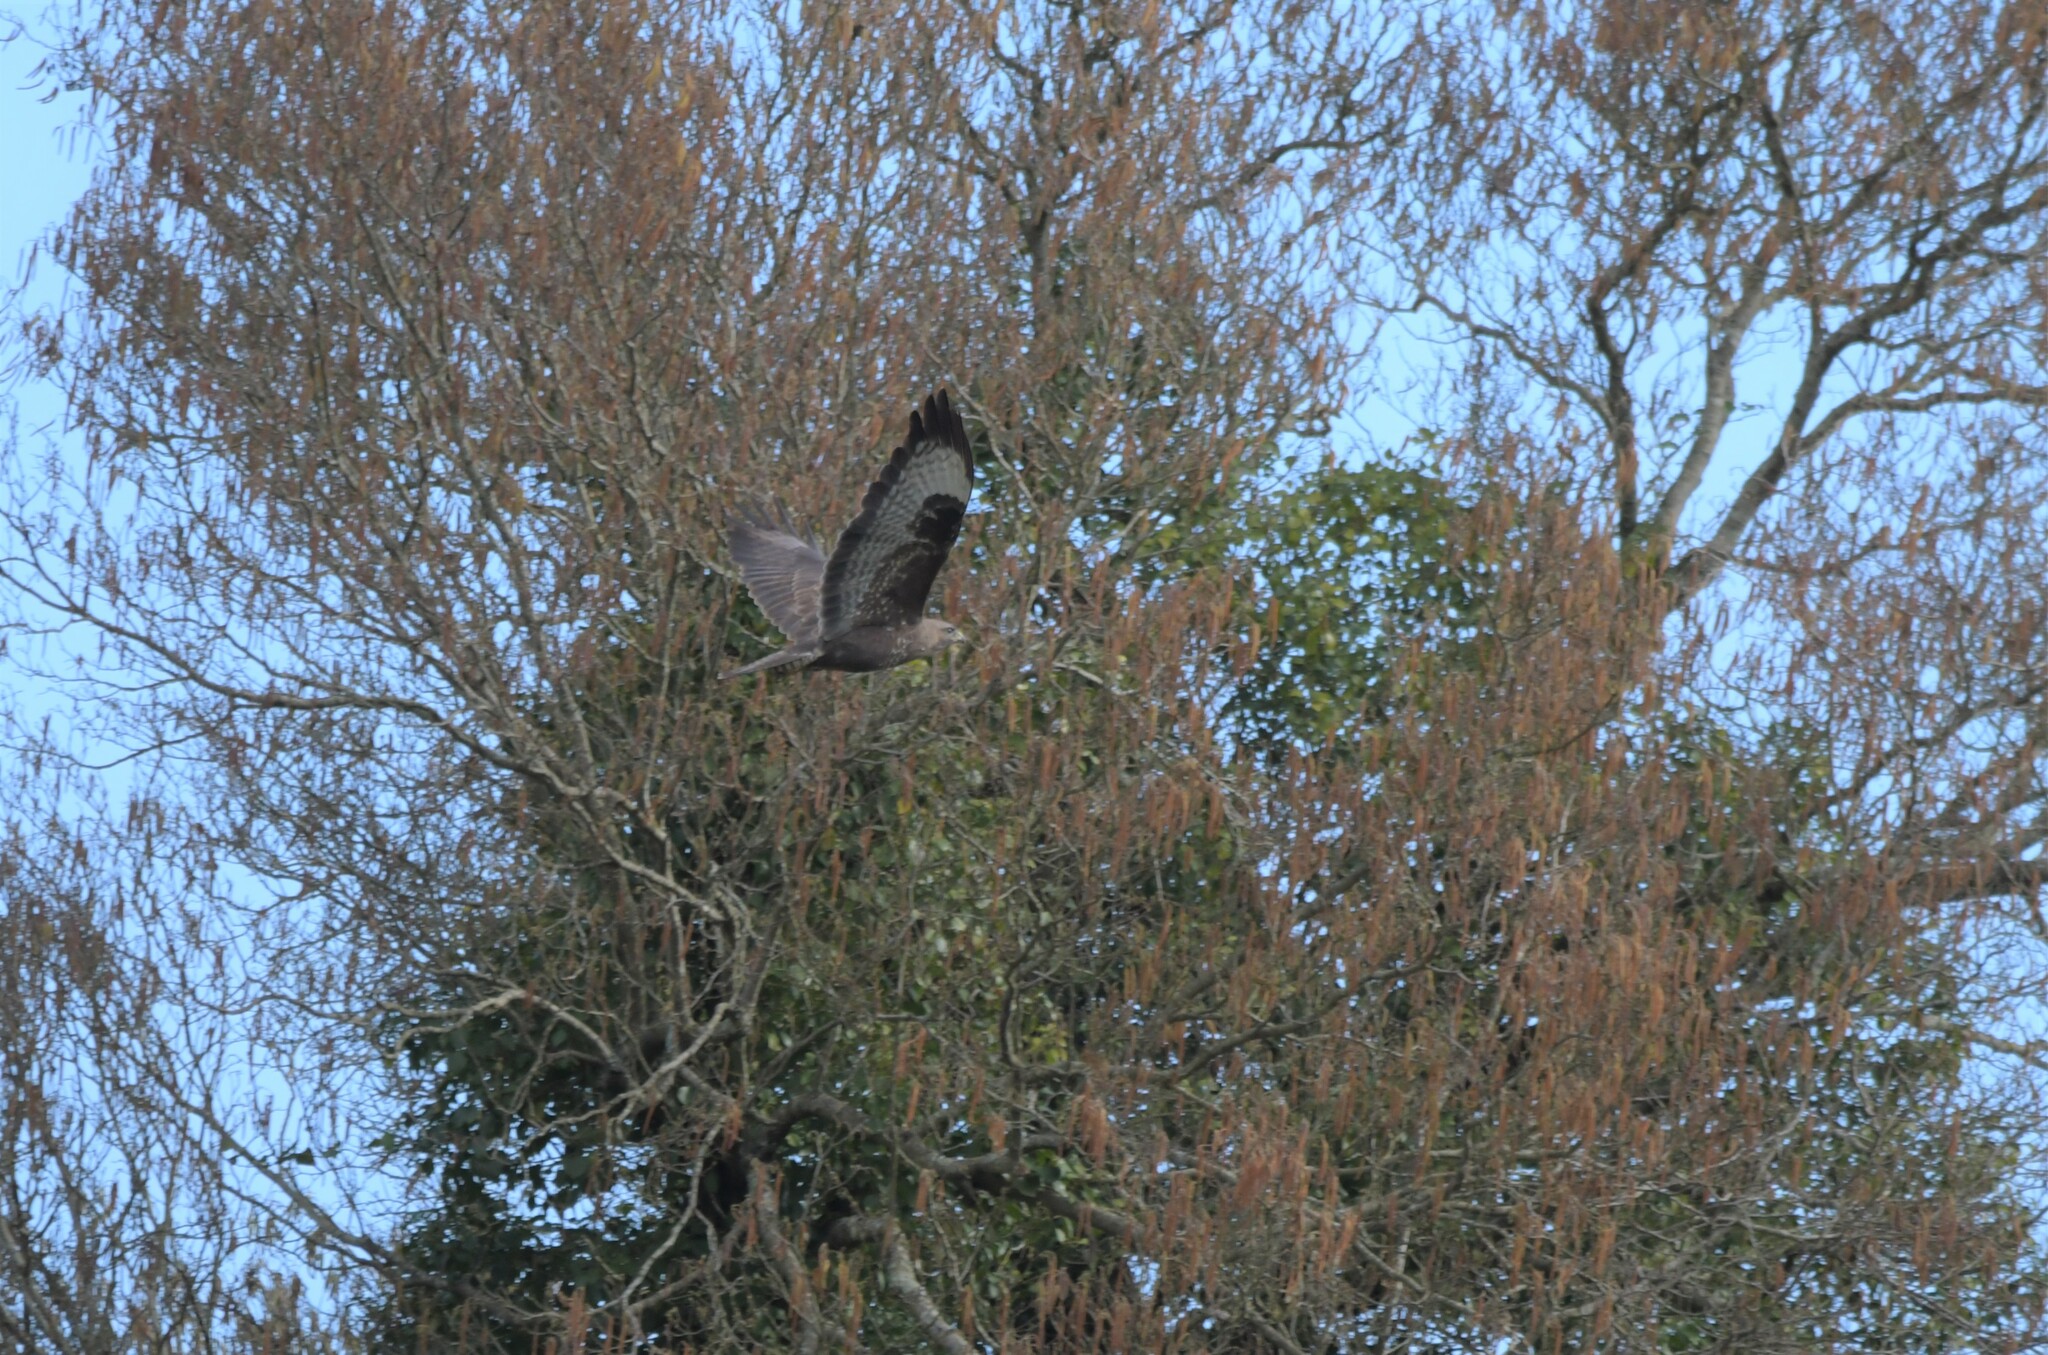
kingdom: Animalia
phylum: Chordata
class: Aves
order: Accipitriformes
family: Accipitridae
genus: Buteo
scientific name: Buteo buteo
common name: Common buzzard
